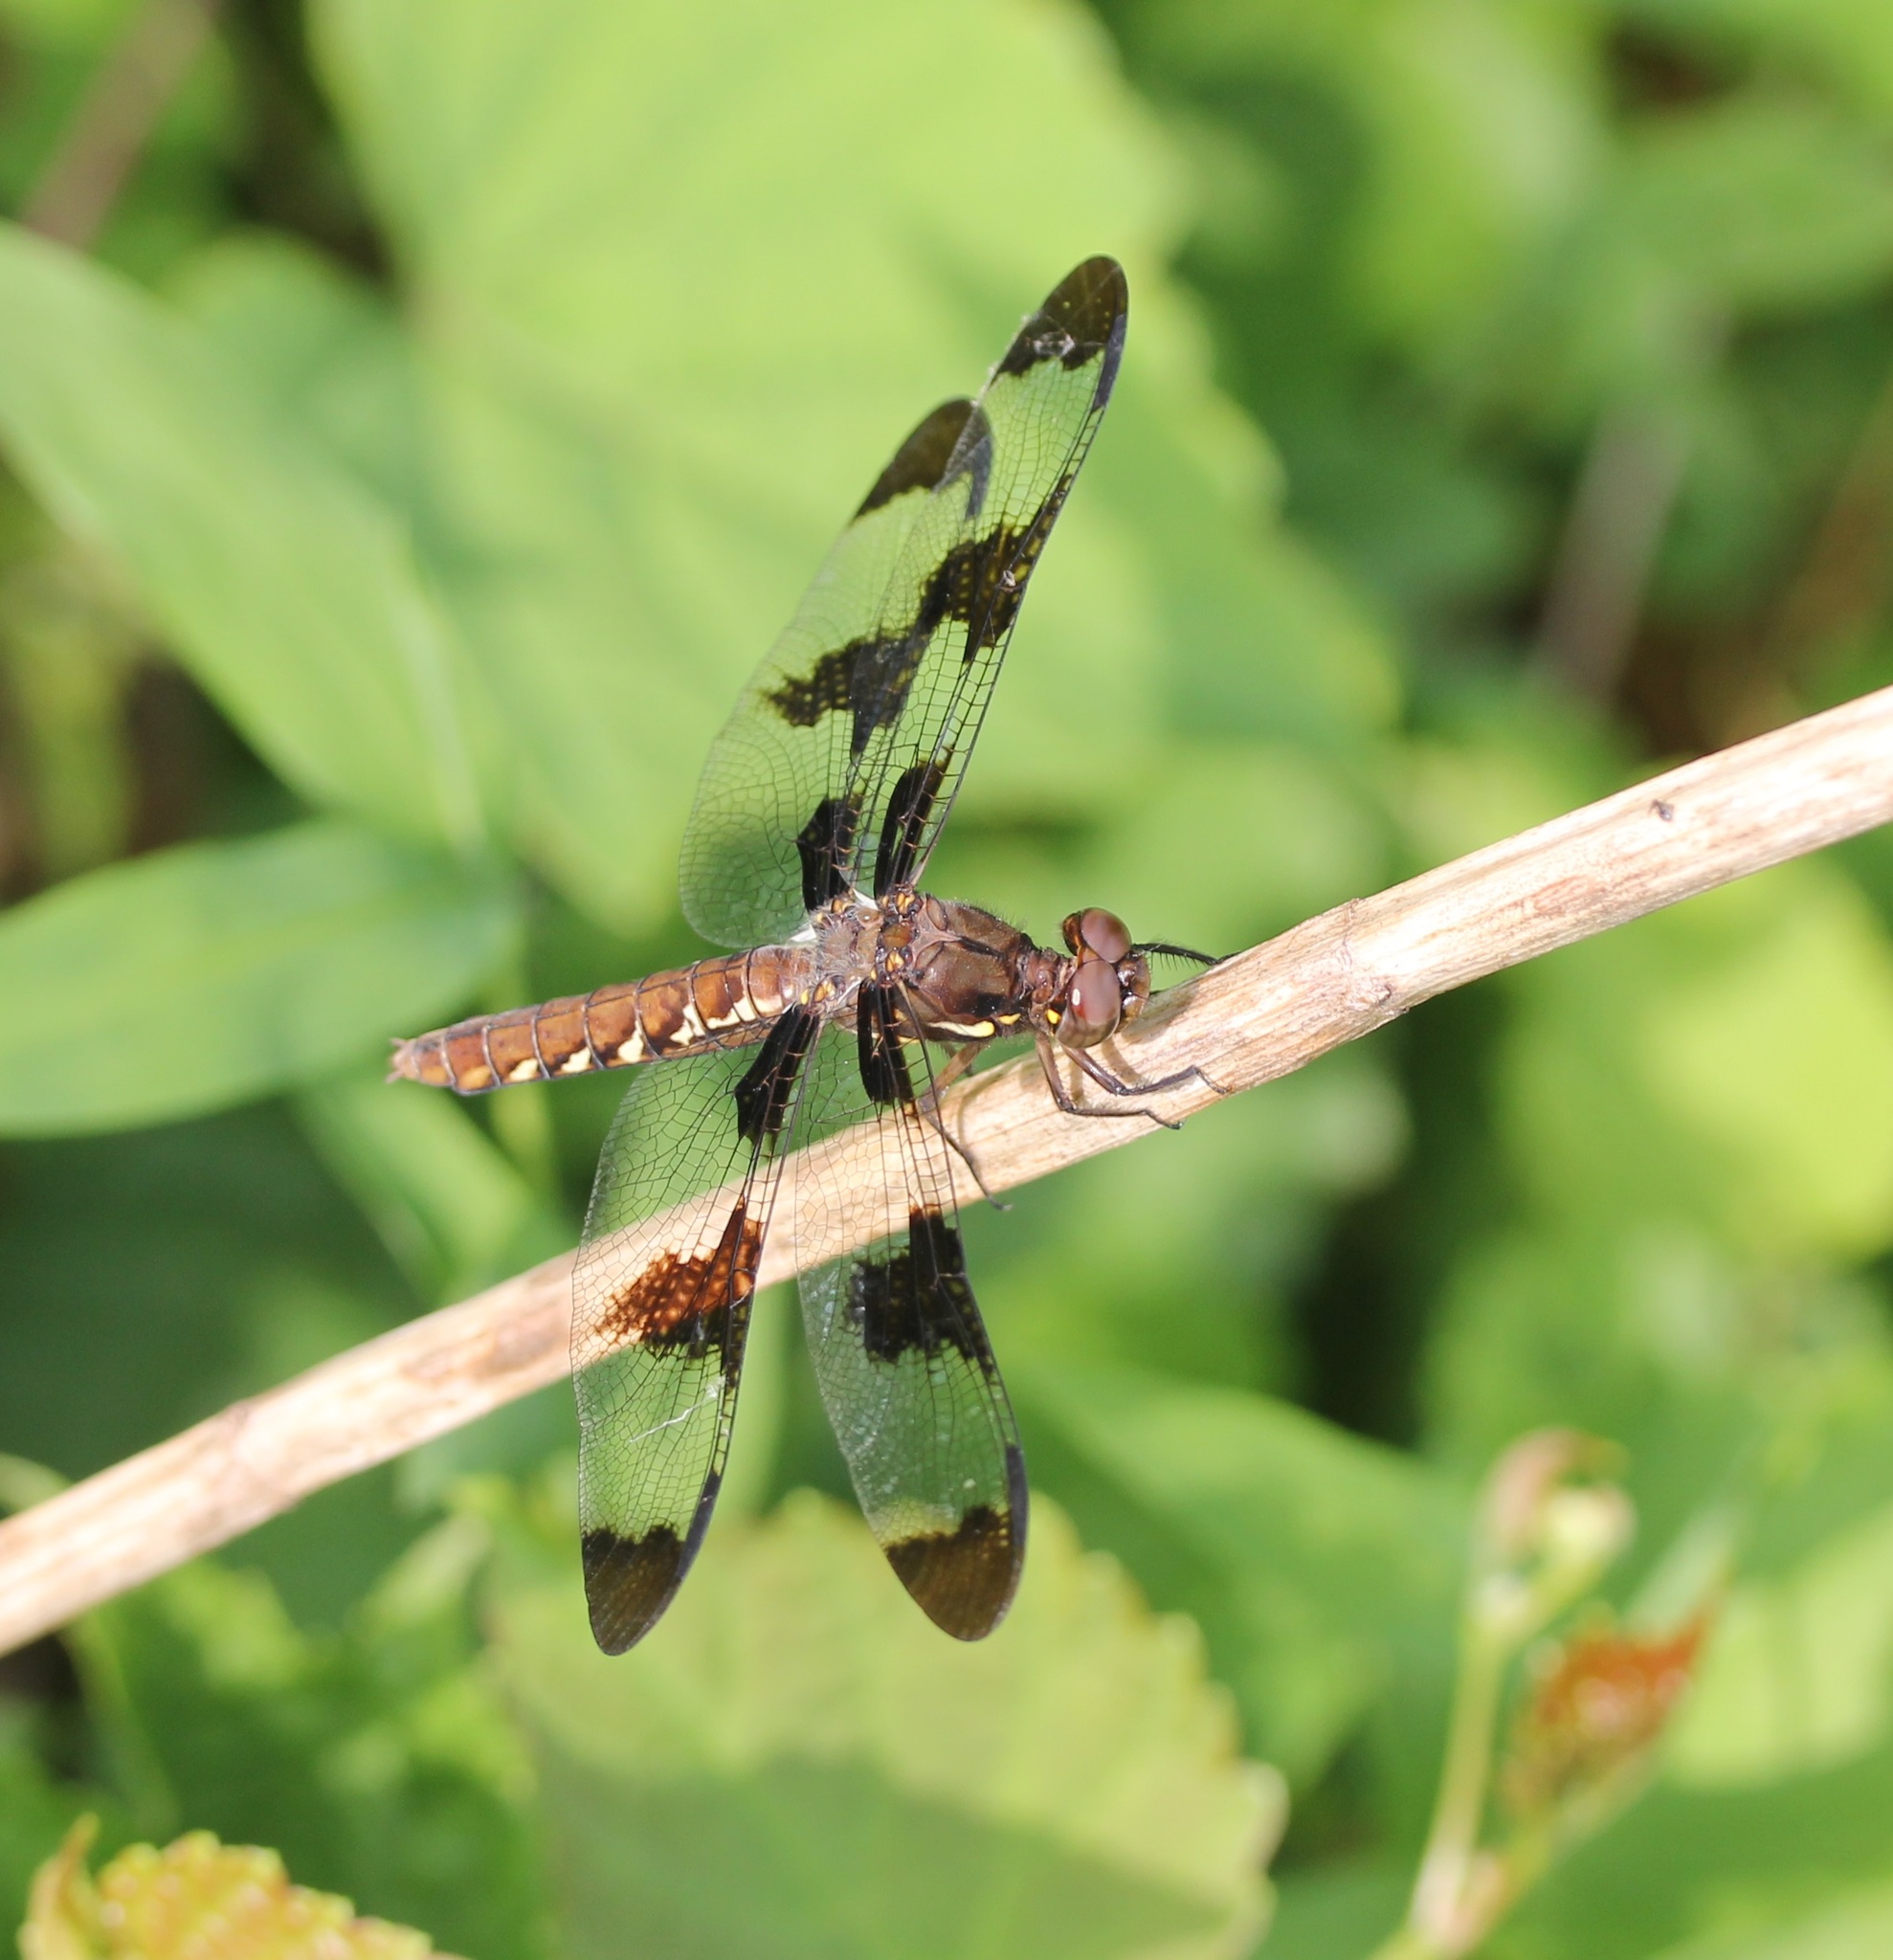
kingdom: Animalia
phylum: Arthropoda
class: Insecta
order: Odonata
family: Libellulidae
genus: Plathemis
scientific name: Plathemis lydia
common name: Common whitetail
